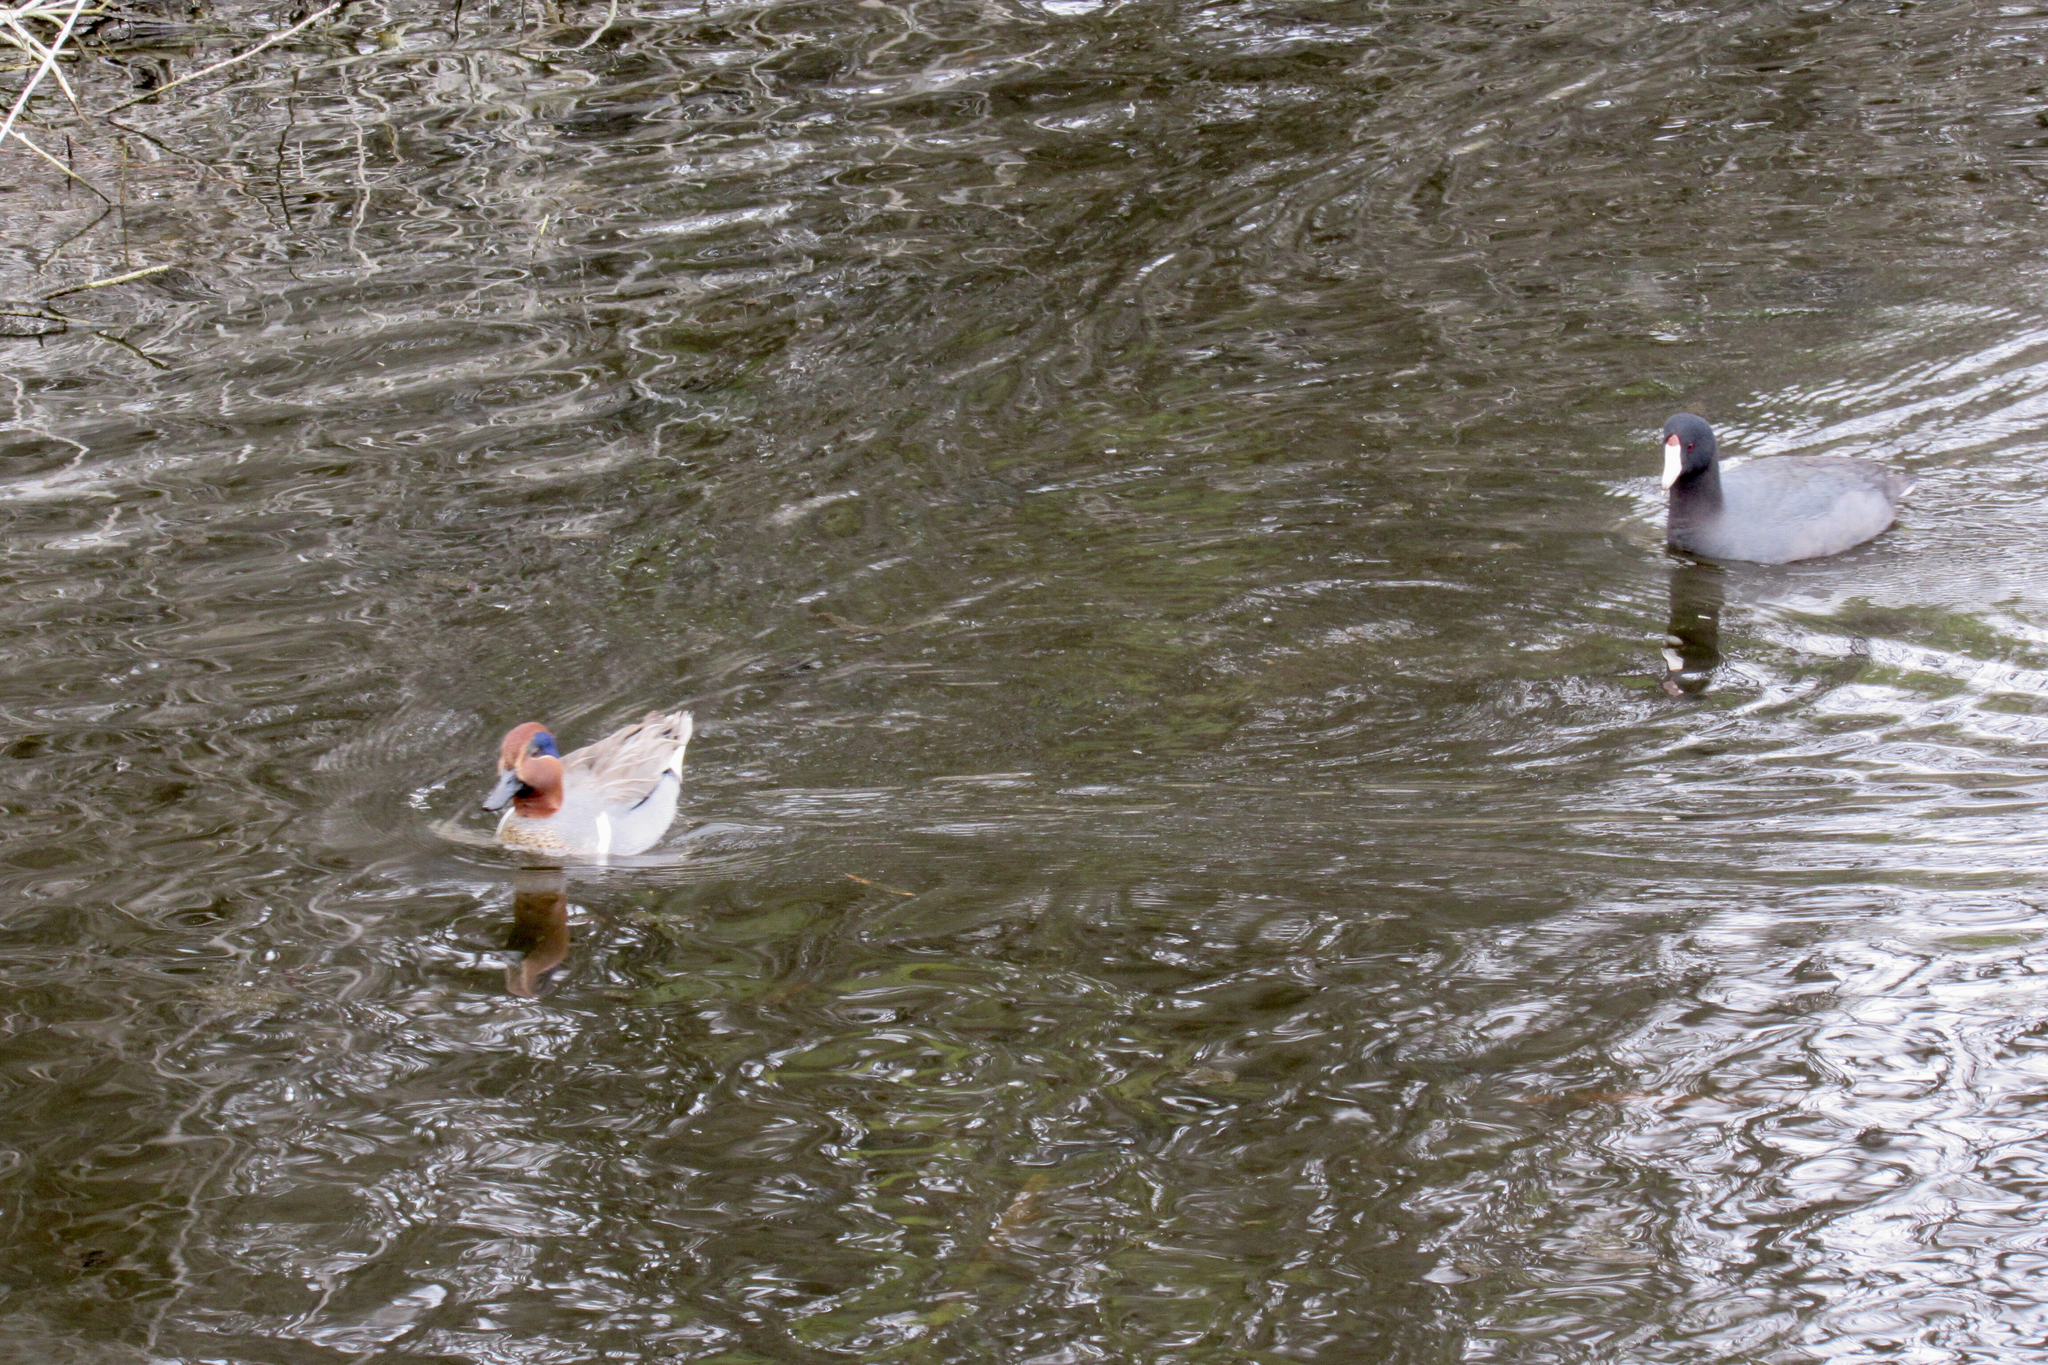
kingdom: Animalia
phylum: Chordata
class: Aves
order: Anseriformes
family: Anatidae
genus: Anas
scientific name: Anas crecca
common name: Eurasian teal
